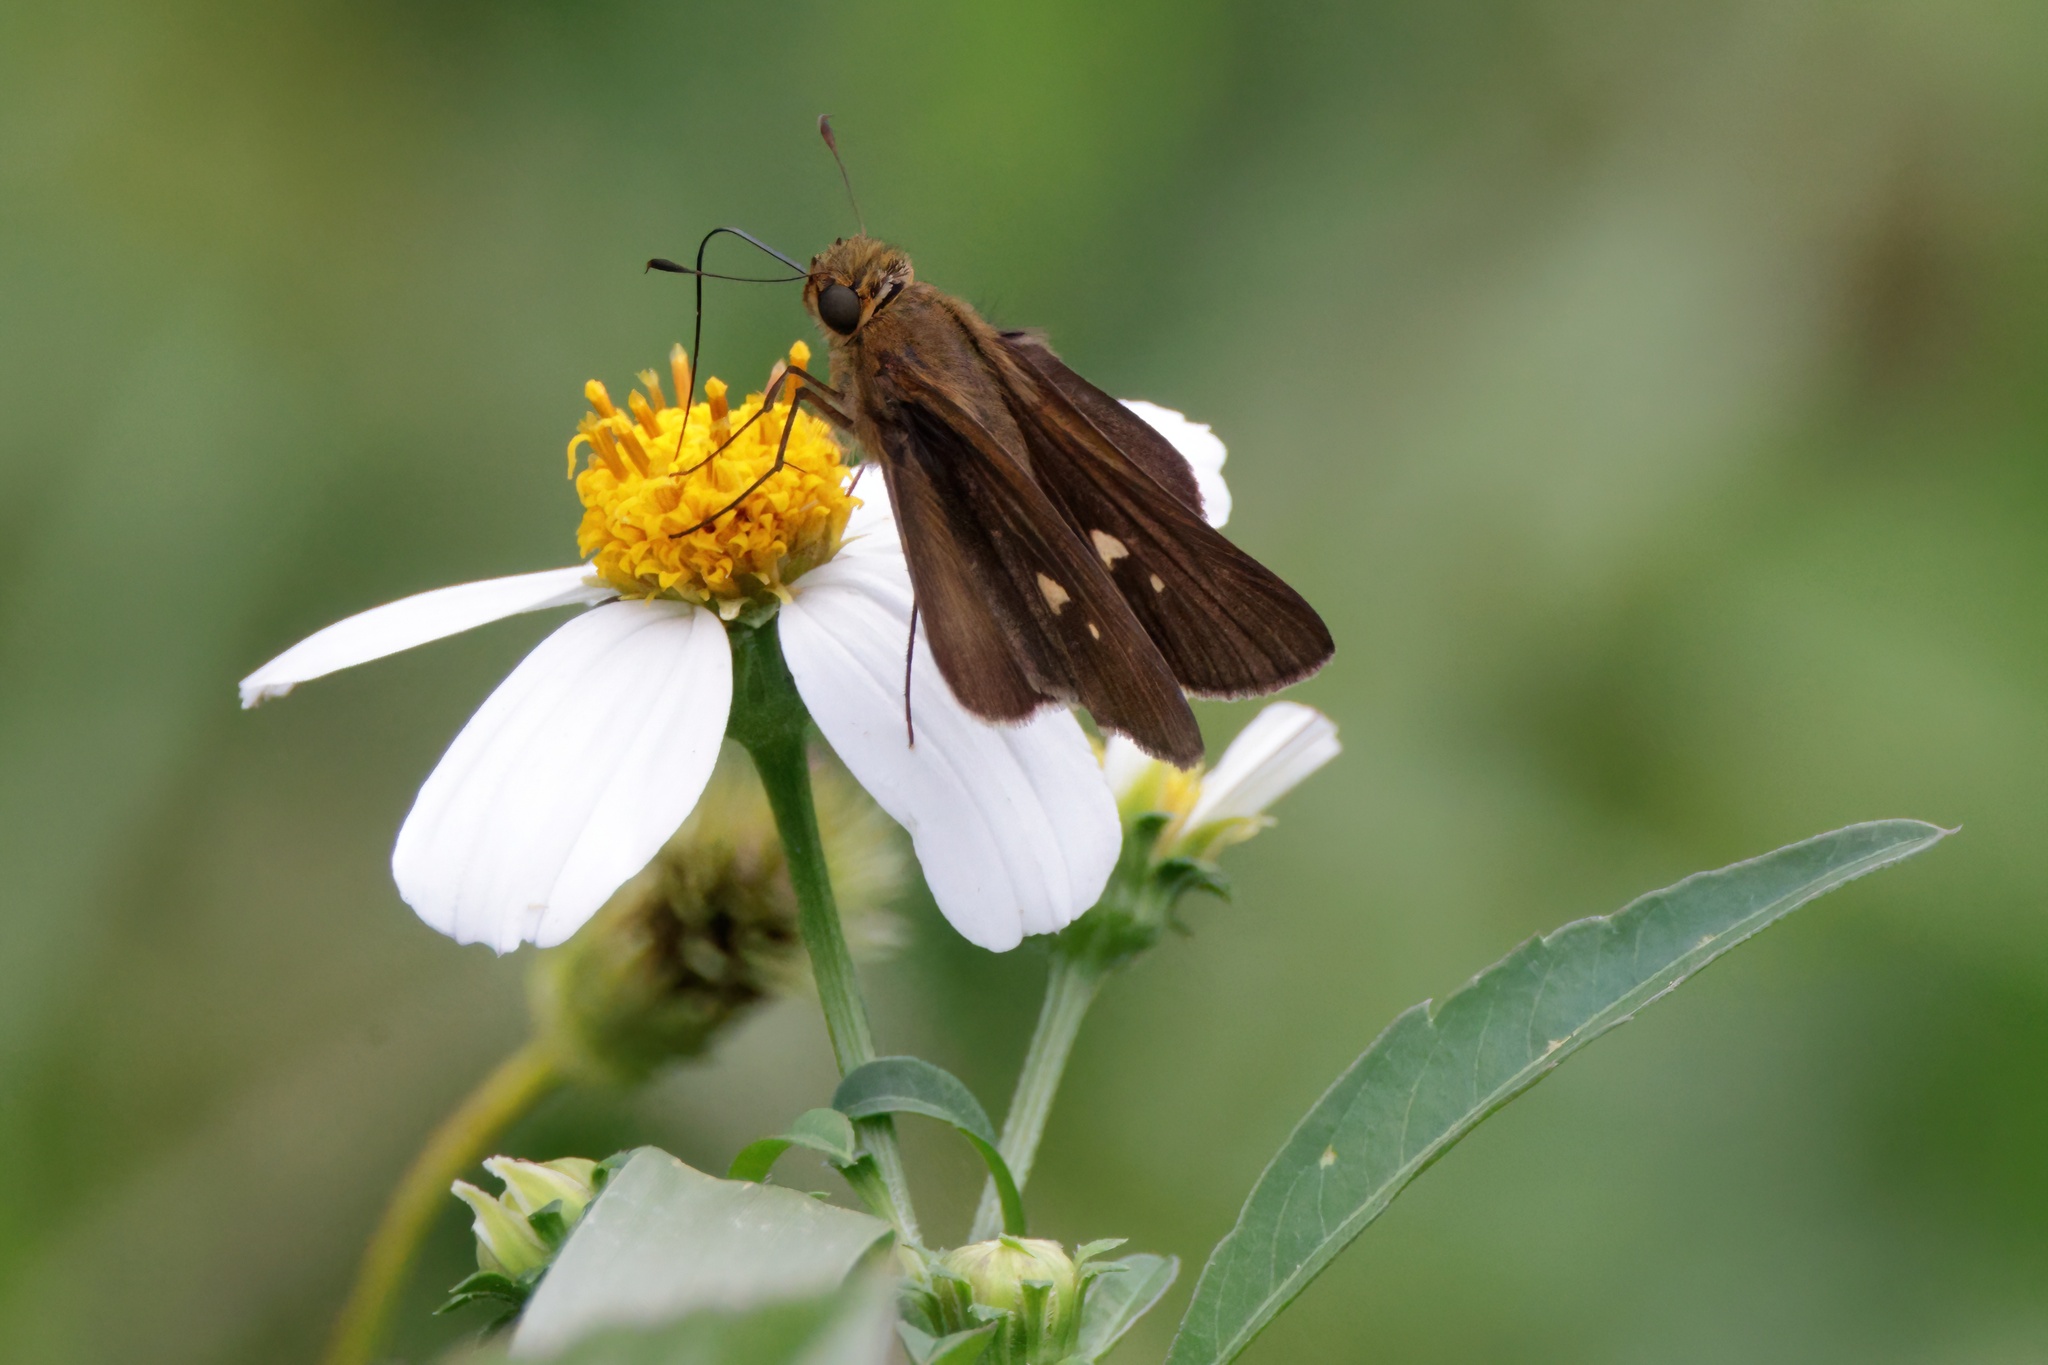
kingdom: Animalia
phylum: Arthropoda
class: Insecta
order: Lepidoptera
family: Hesperiidae
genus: Panoquina
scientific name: Panoquina ocola
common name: Ocola skipper
